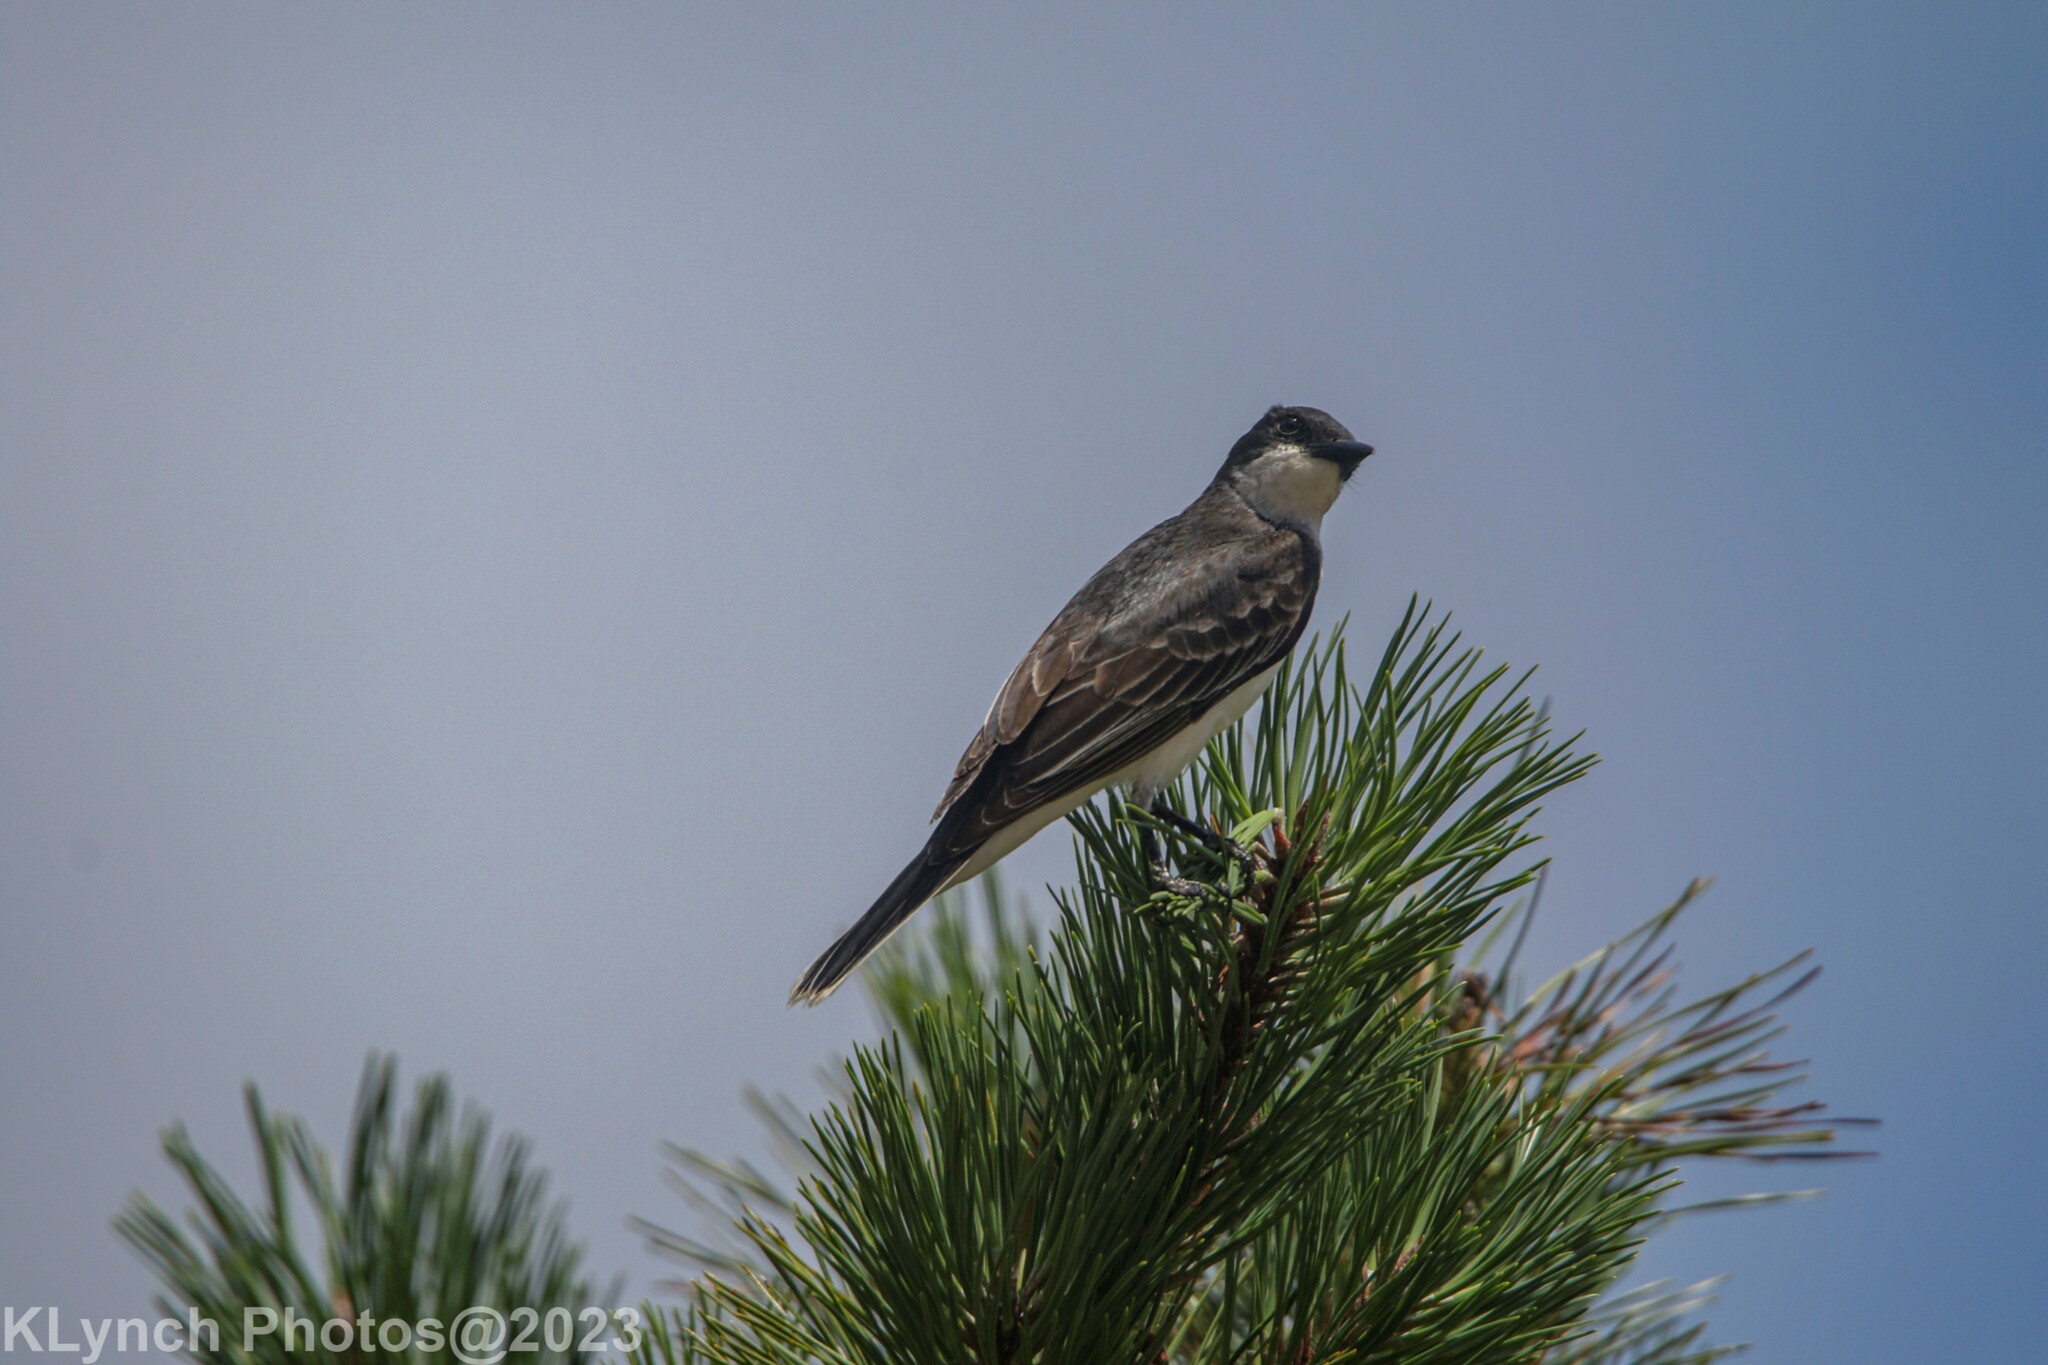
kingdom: Animalia
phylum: Chordata
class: Aves
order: Passeriformes
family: Tyrannidae
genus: Tyrannus
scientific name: Tyrannus tyrannus
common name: Eastern kingbird
